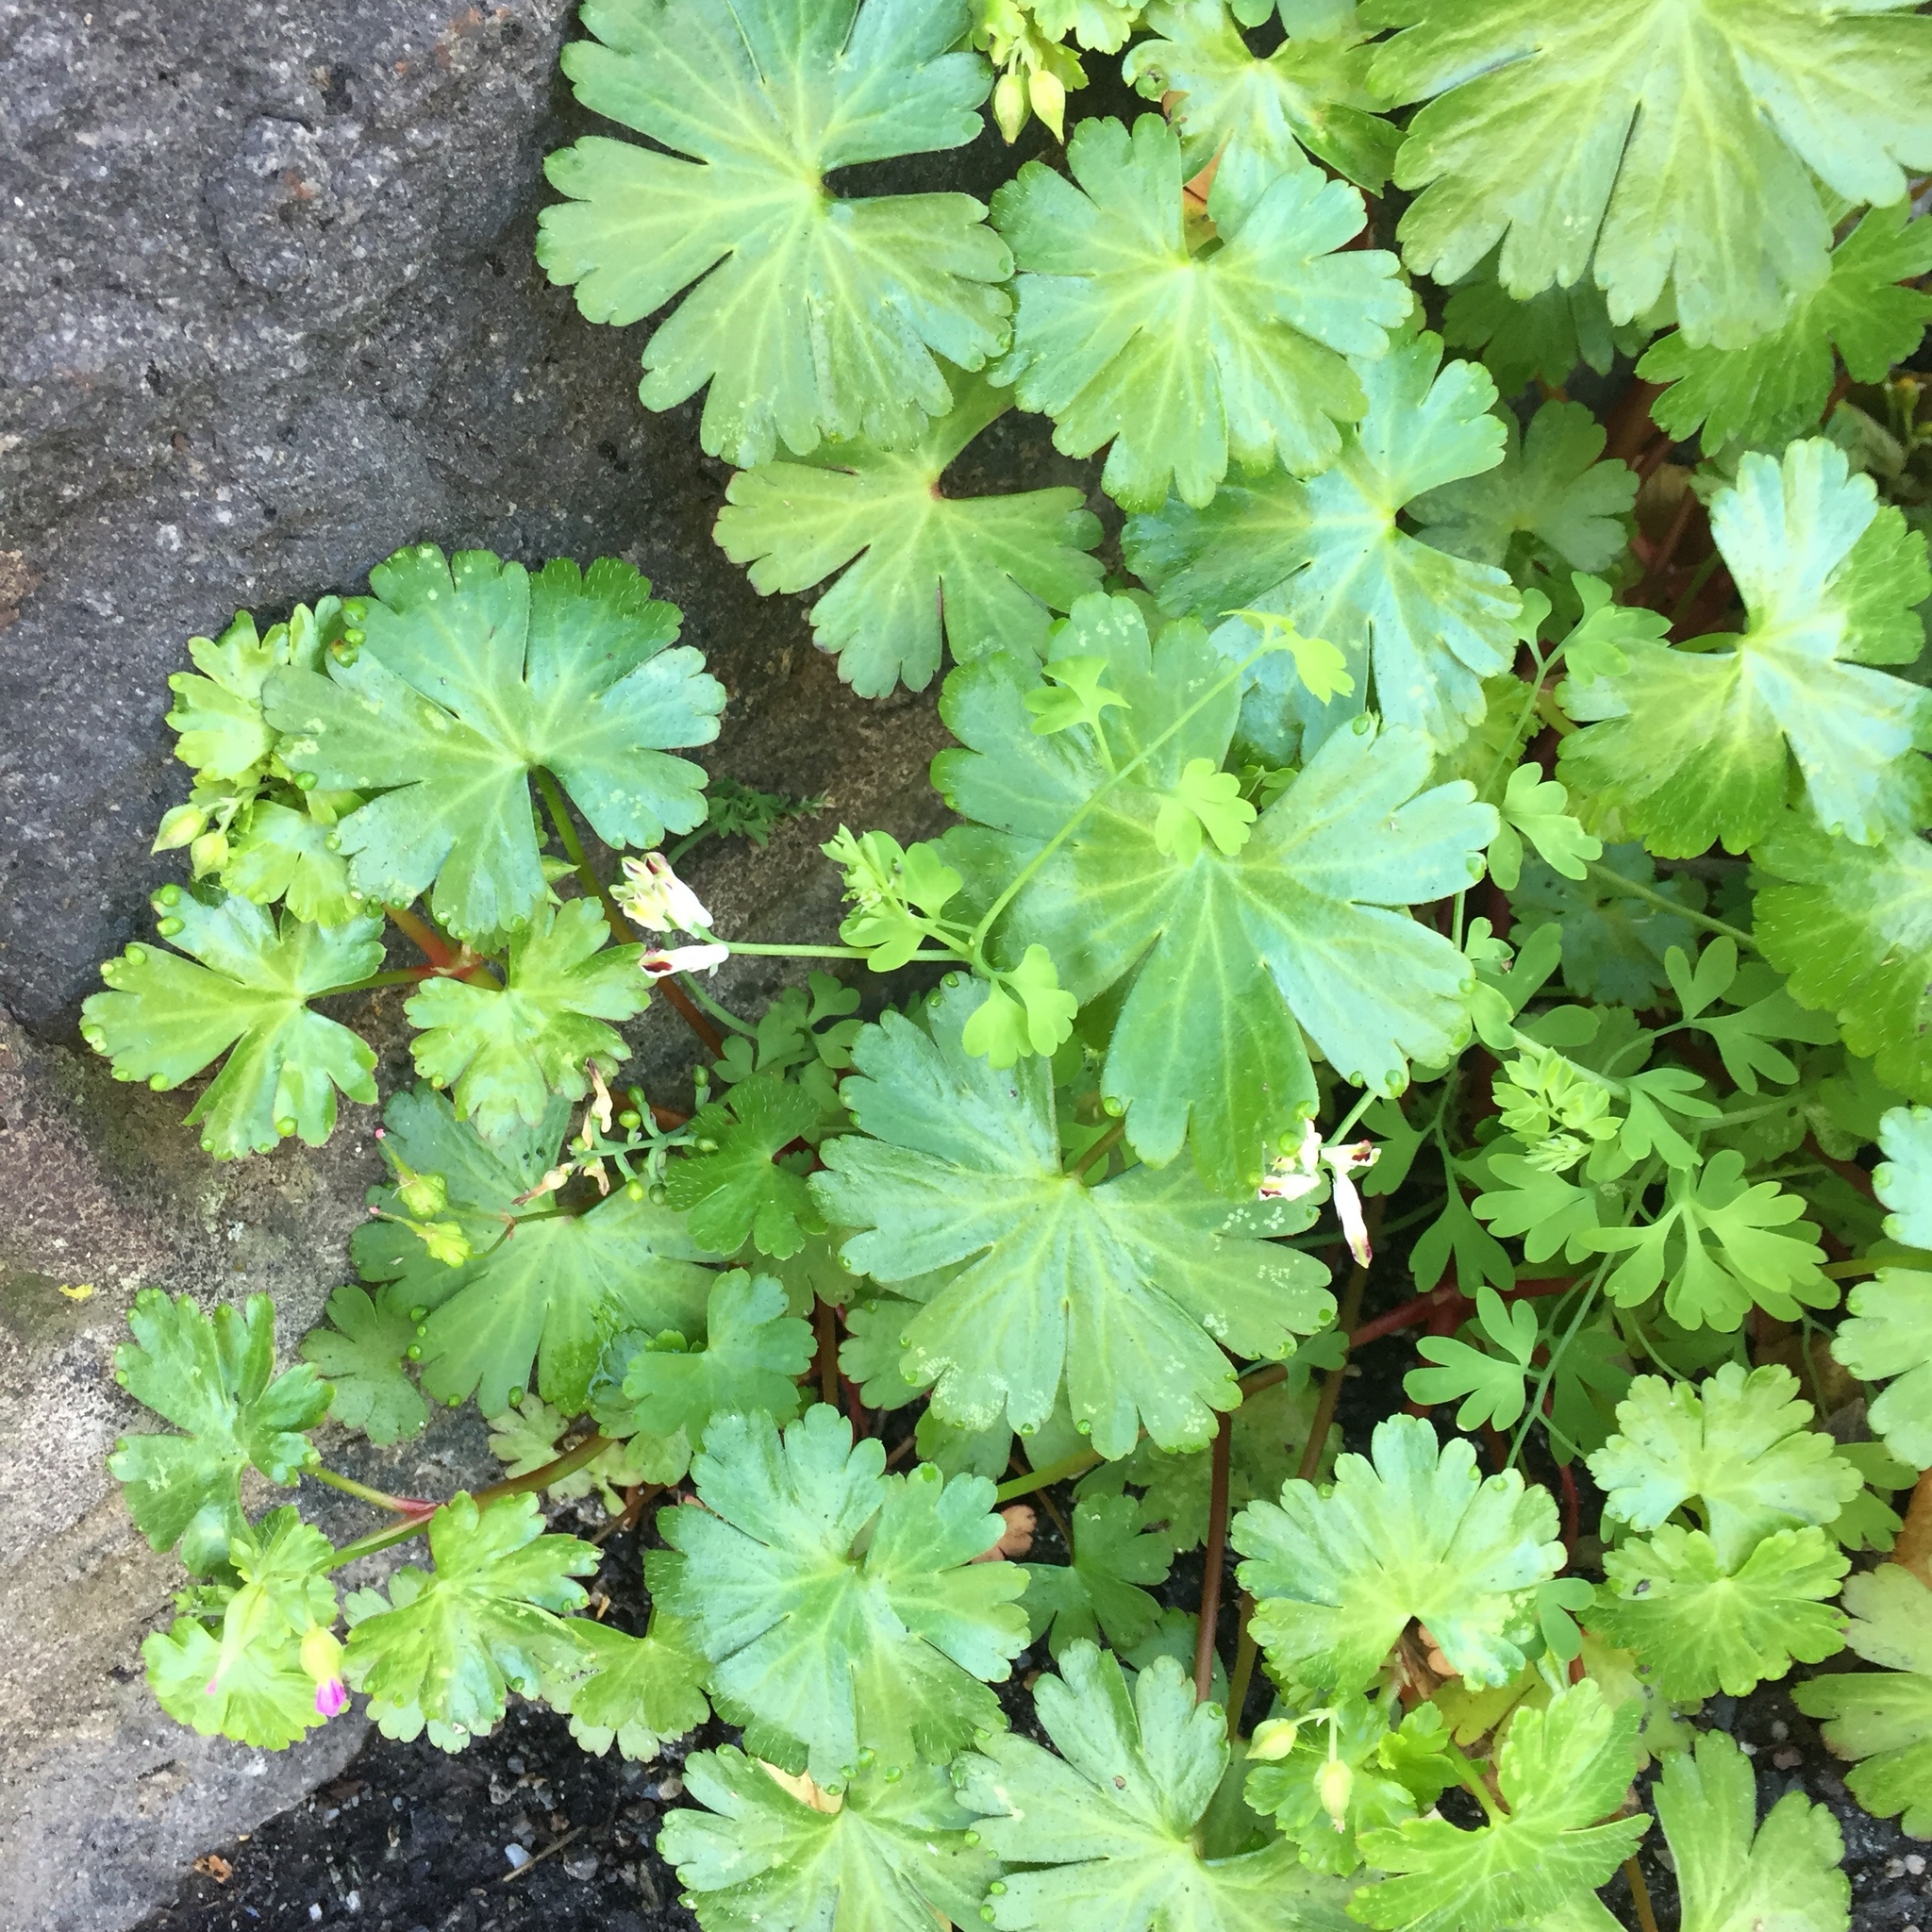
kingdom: Plantae
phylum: Tracheophyta
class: Magnoliopsida
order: Geraniales
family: Geraniaceae
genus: Geranium
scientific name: Geranium lucidum
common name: Shining crane's-bill
